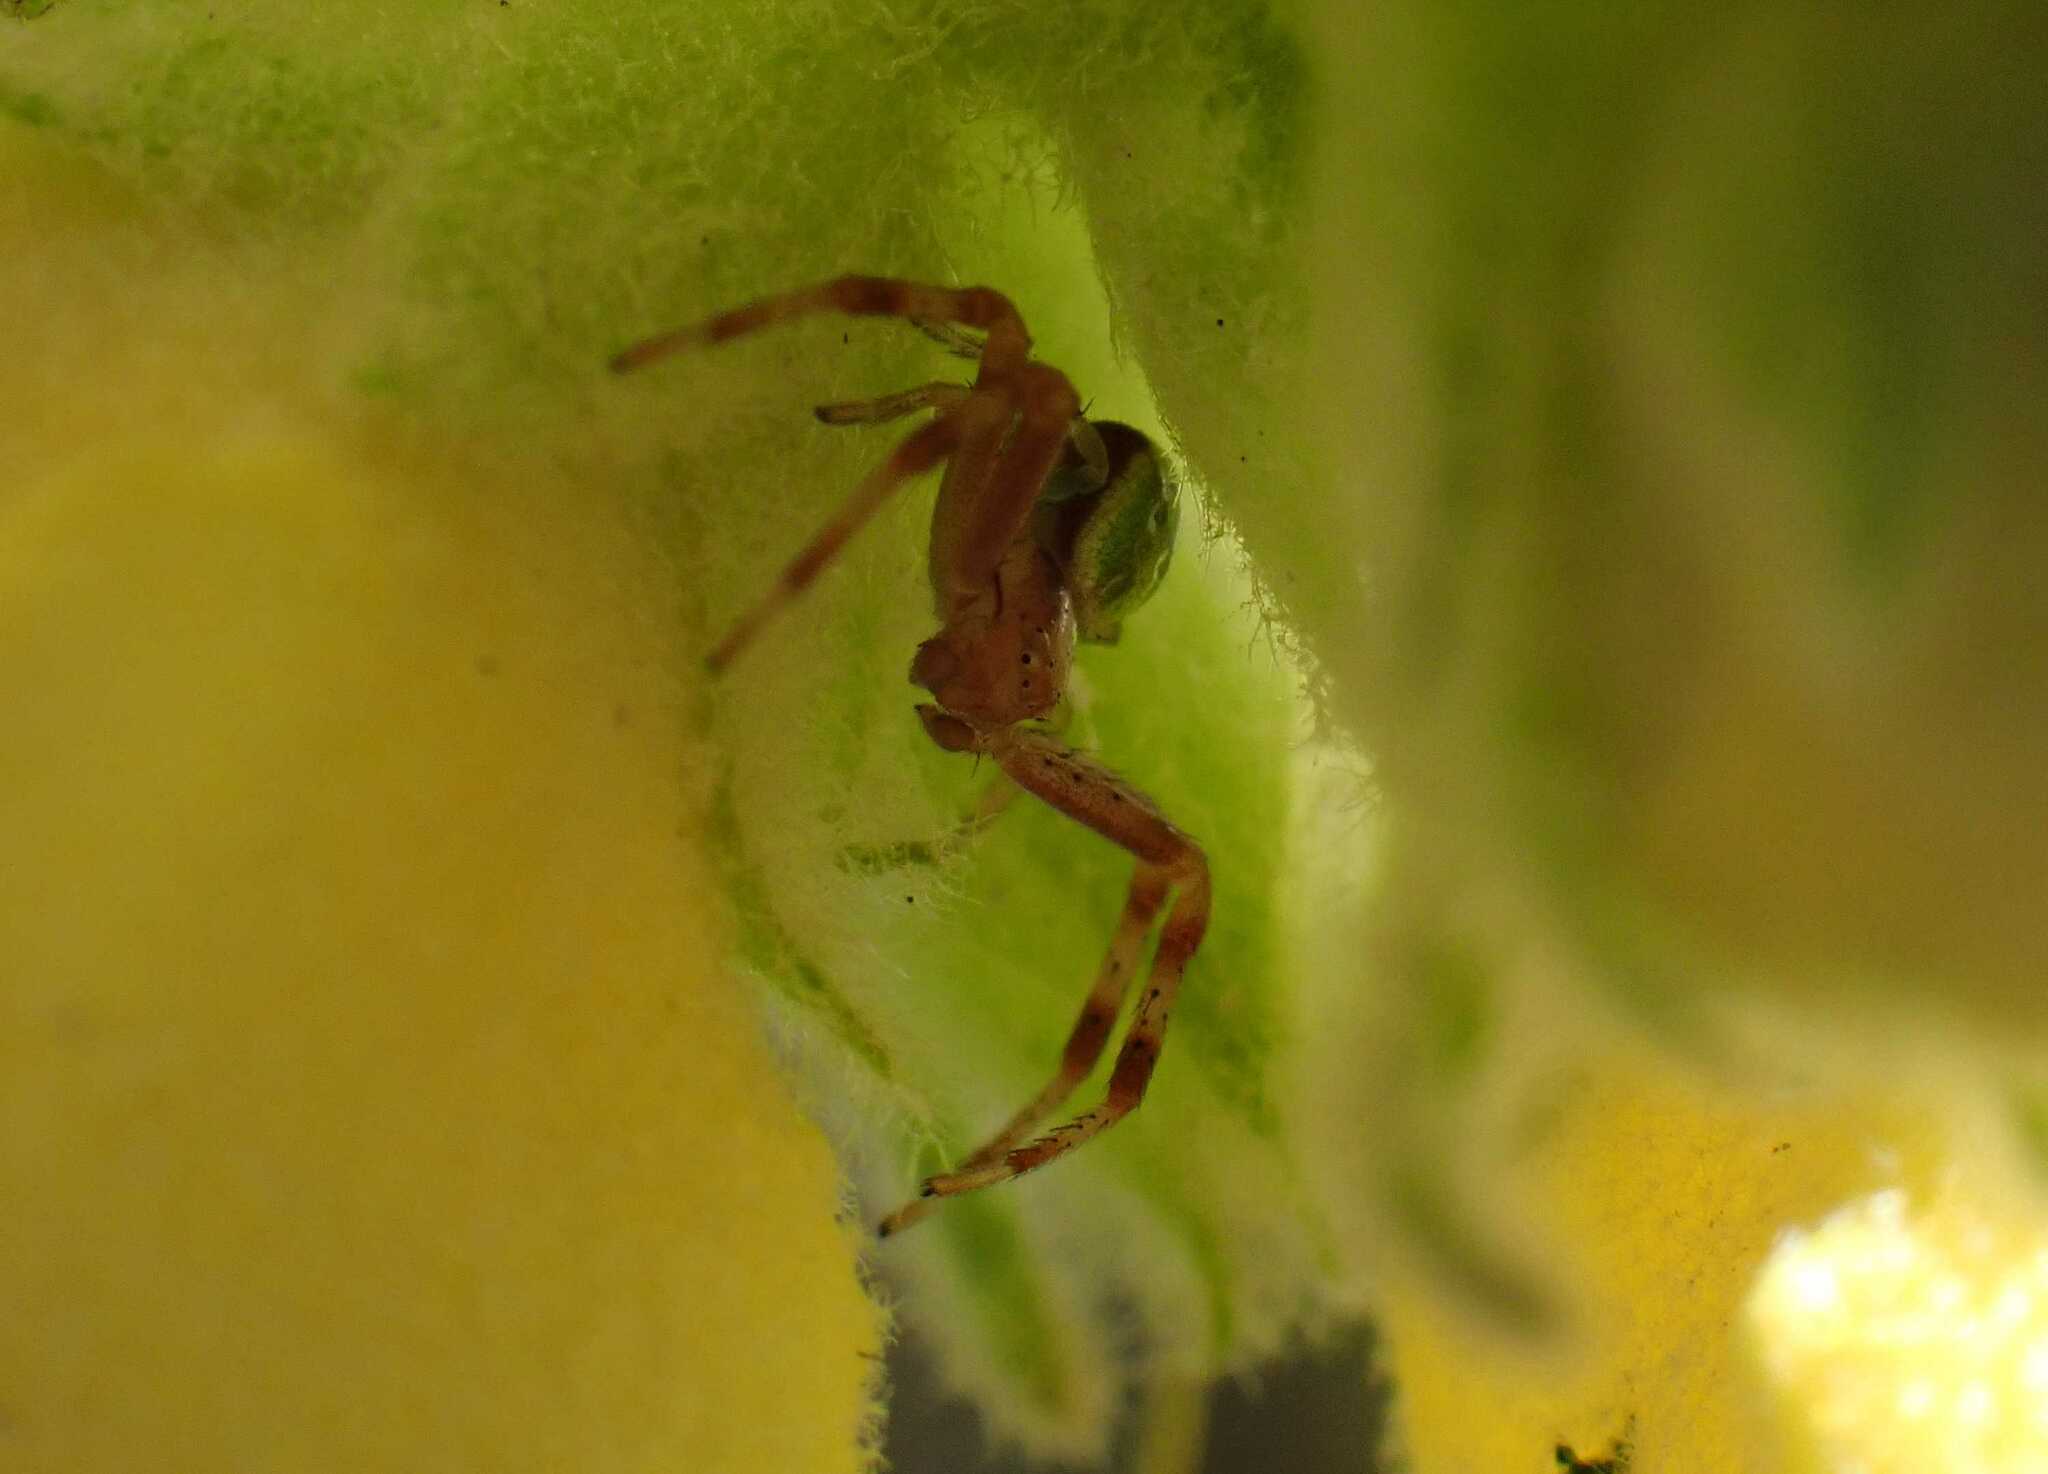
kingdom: Animalia
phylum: Arthropoda
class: Arachnida
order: Araneae
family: Thomisidae
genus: Ebrechtella
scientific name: Ebrechtella tricuspidata
